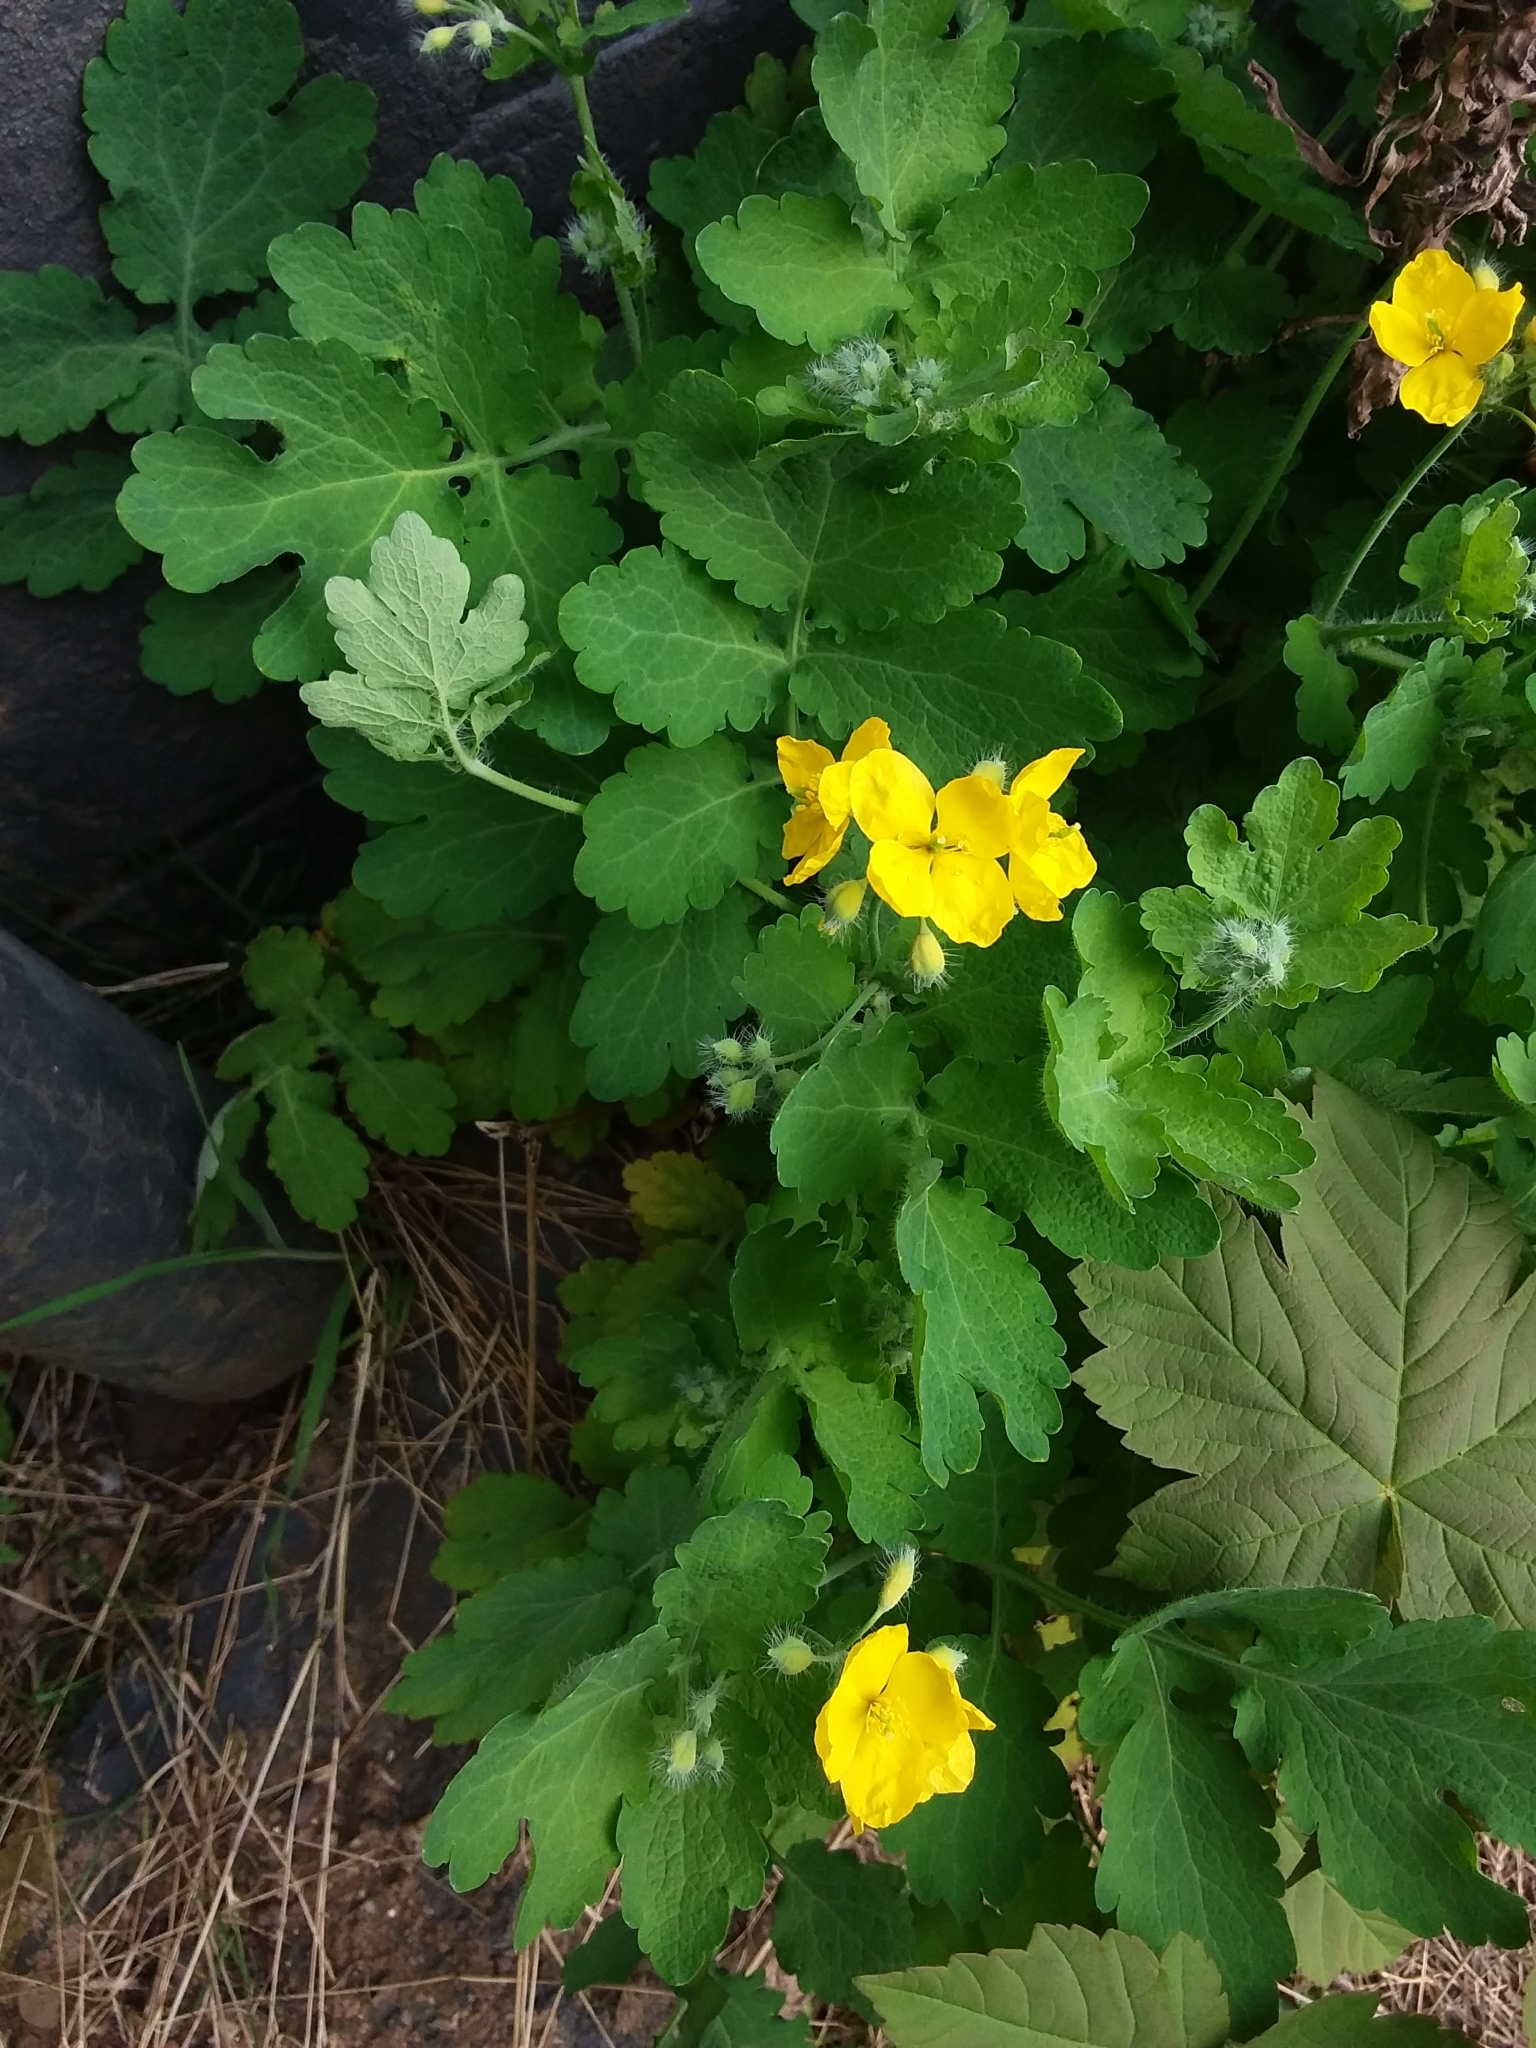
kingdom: Plantae
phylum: Tracheophyta
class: Magnoliopsida
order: Ranunculales
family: Papaveraceae
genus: Chelidonium
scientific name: Chelidonium majus
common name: Greater celandine
